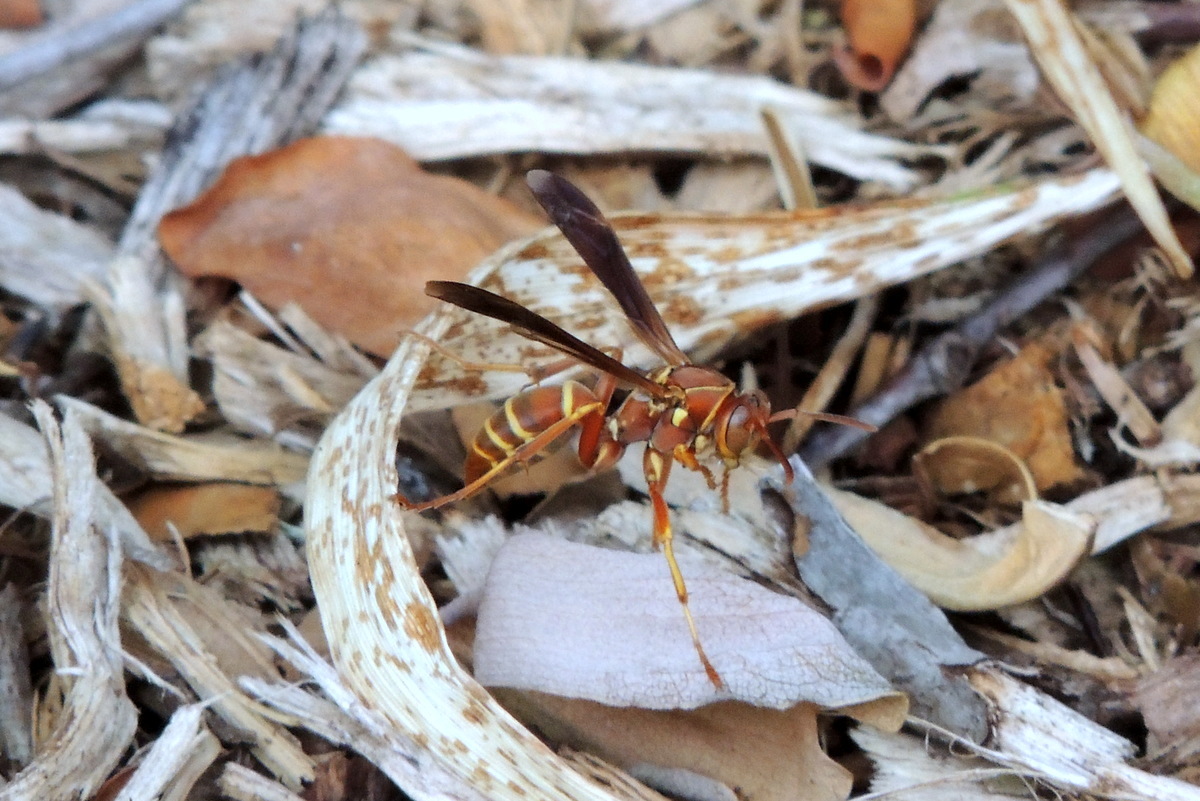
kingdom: Animalia
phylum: Arthropoda
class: Insecta
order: Hymenoptera
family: Eumenidae
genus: Polistes
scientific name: Polistes bellicosus
